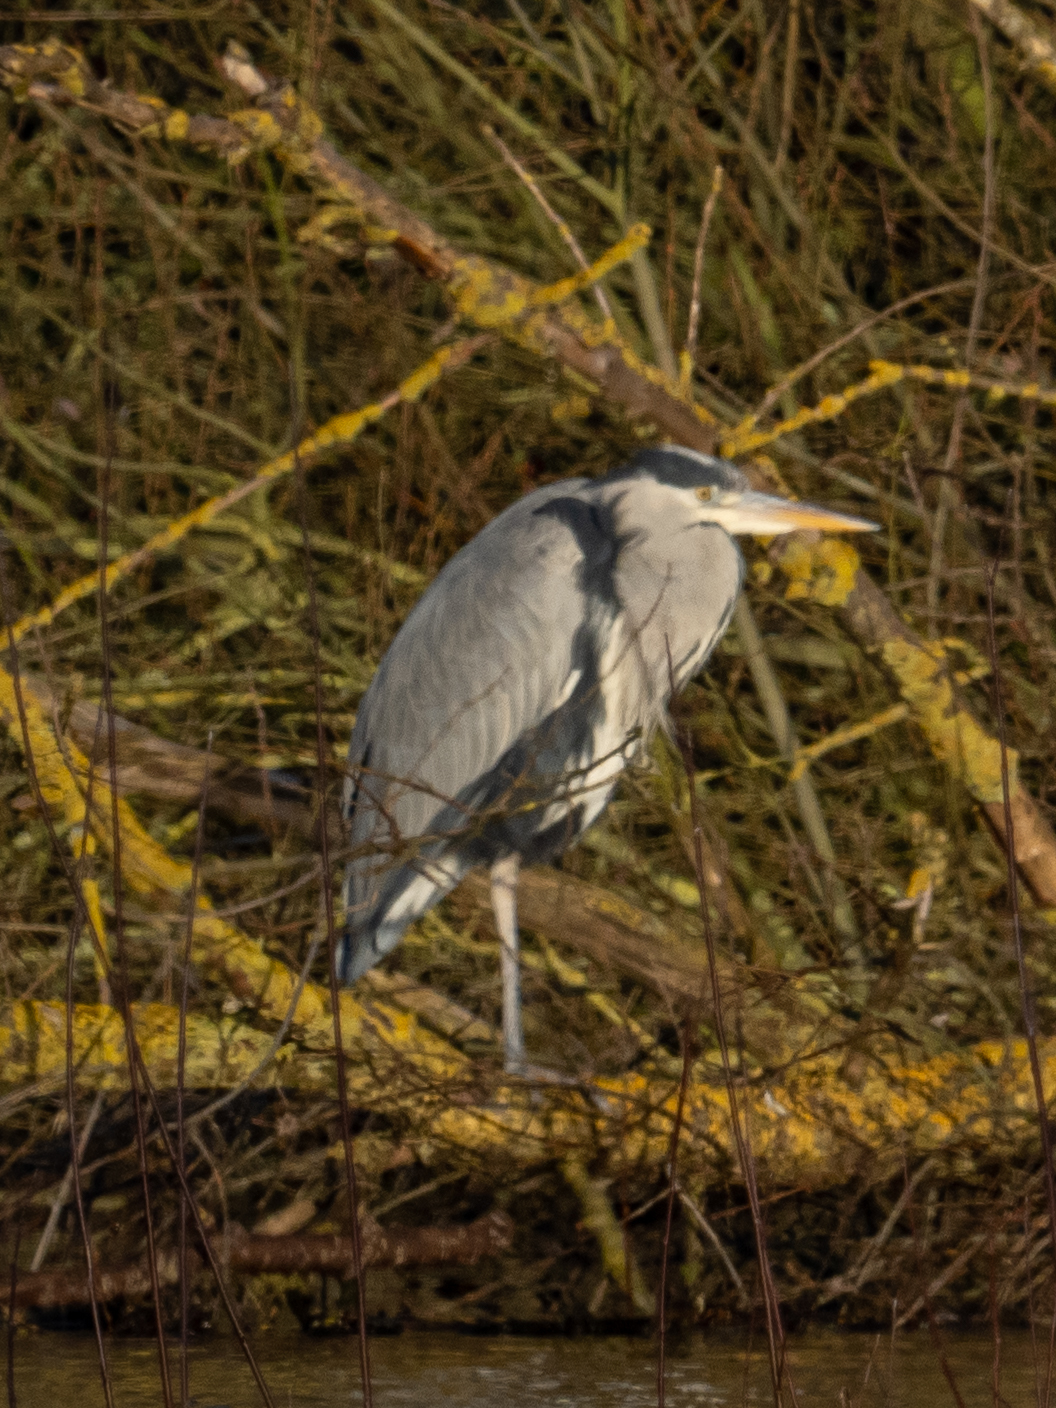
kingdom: Animalia
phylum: Chordata
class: Aves
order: Pelecaniformes
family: Ardeidae
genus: Ardea
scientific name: Ardea cinerea
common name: Grey heron
